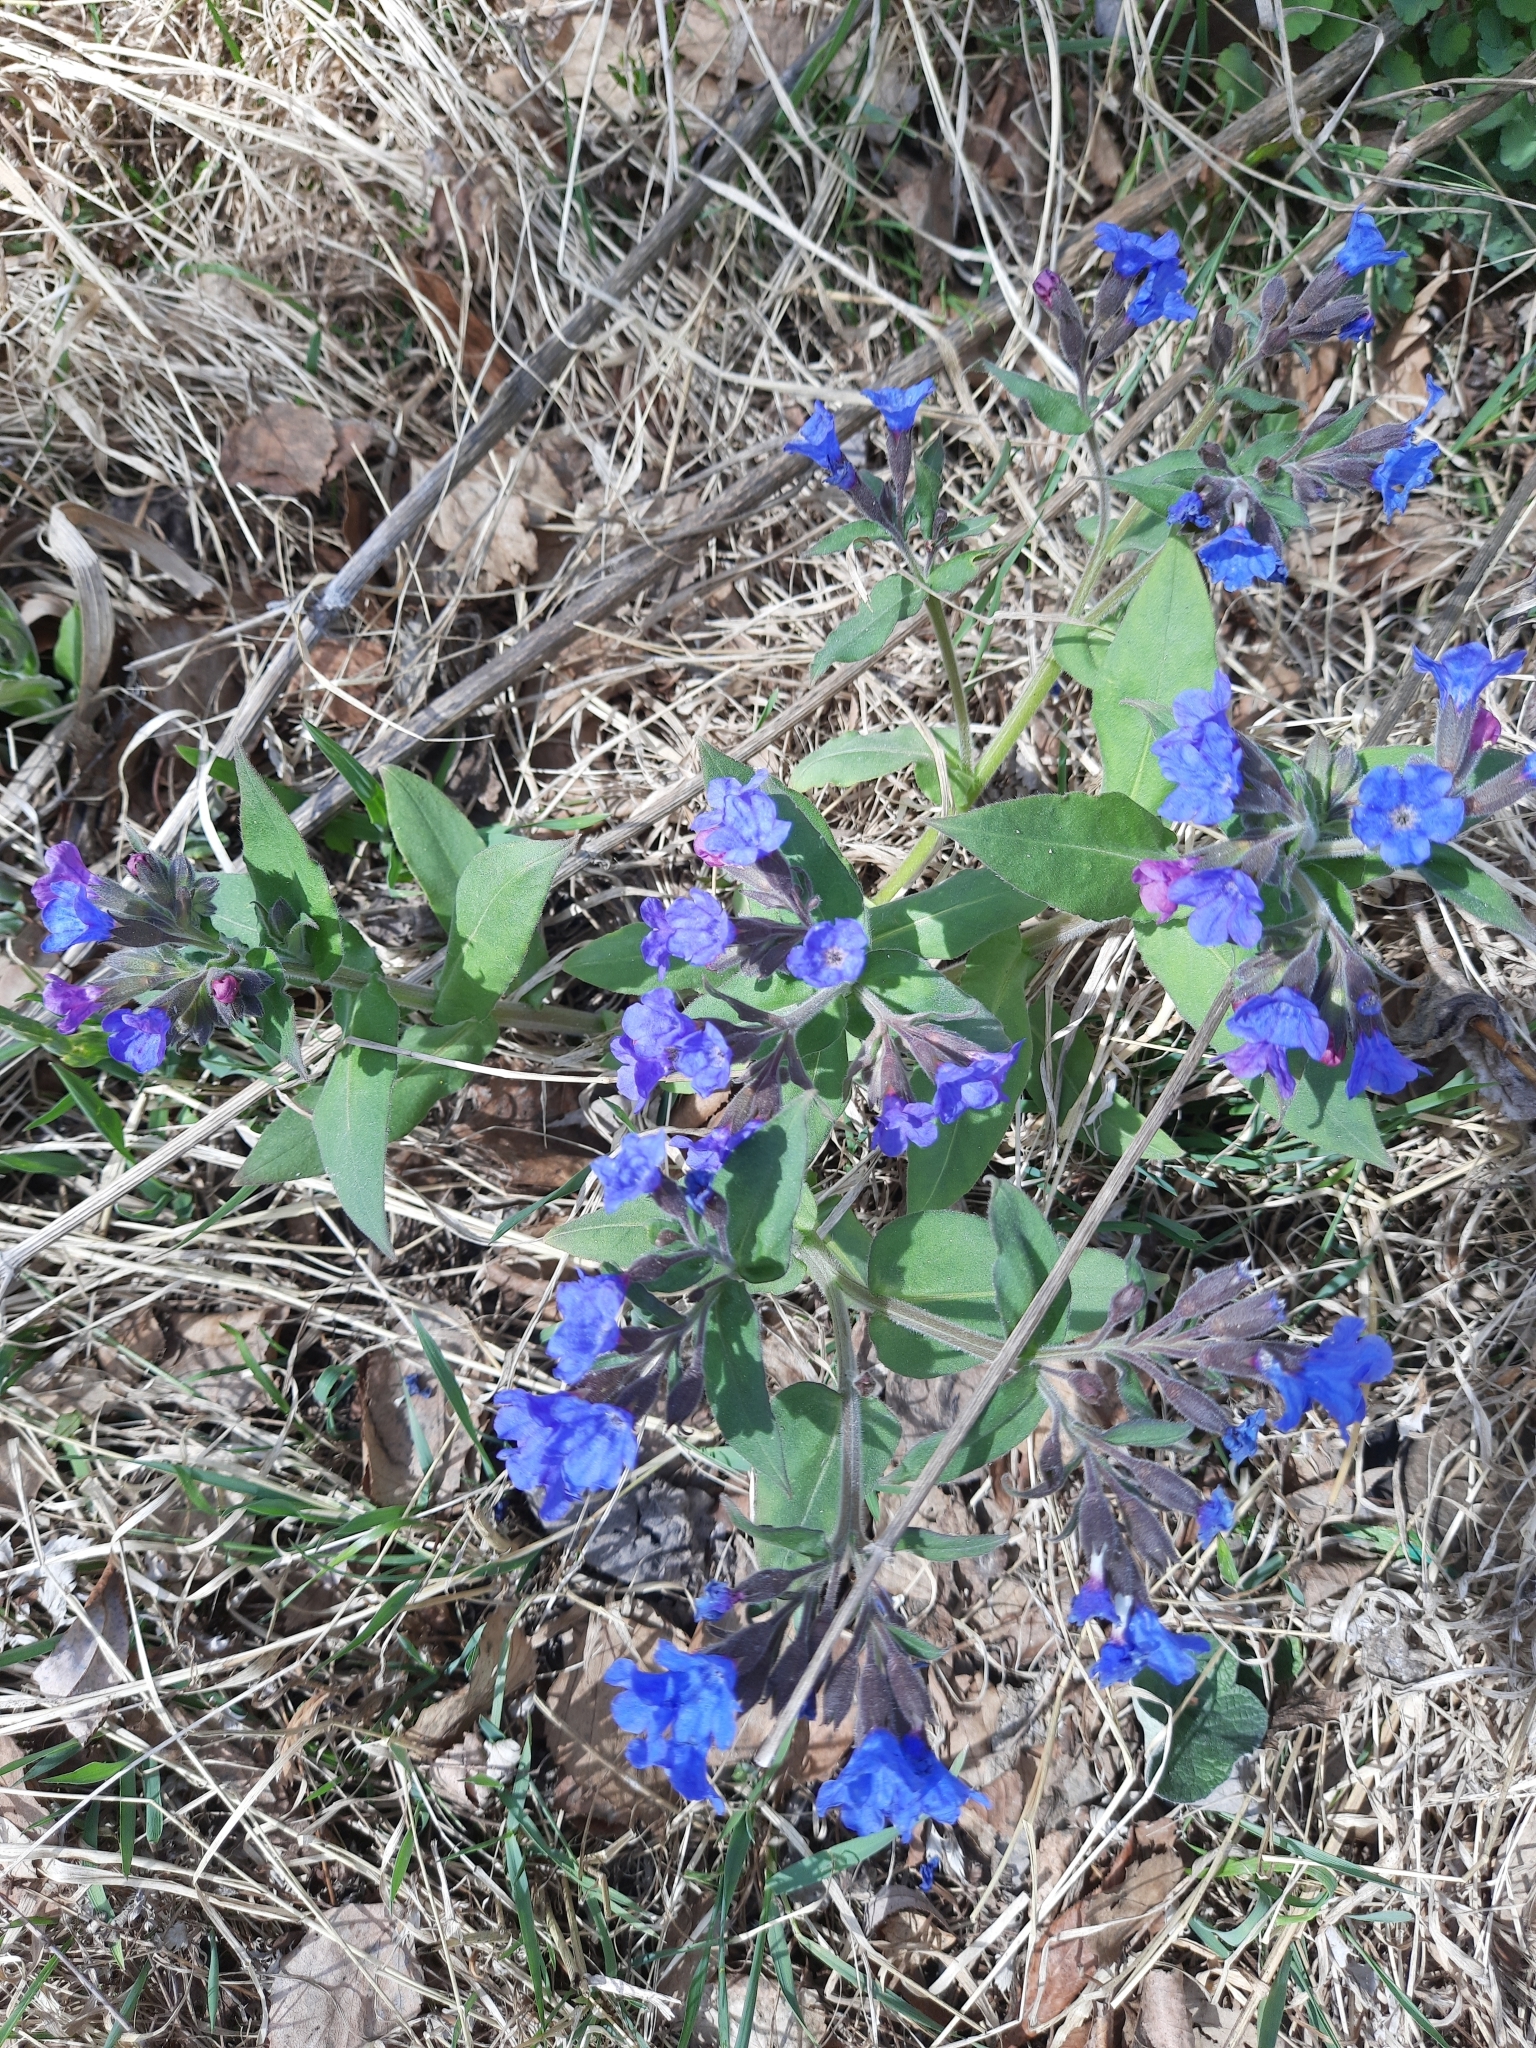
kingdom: Plantae
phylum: Tracheophyta
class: Magnoliopsida
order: Boraginales
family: Boraginaceae
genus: Pulmonaria
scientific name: Pulmonaria mollis
